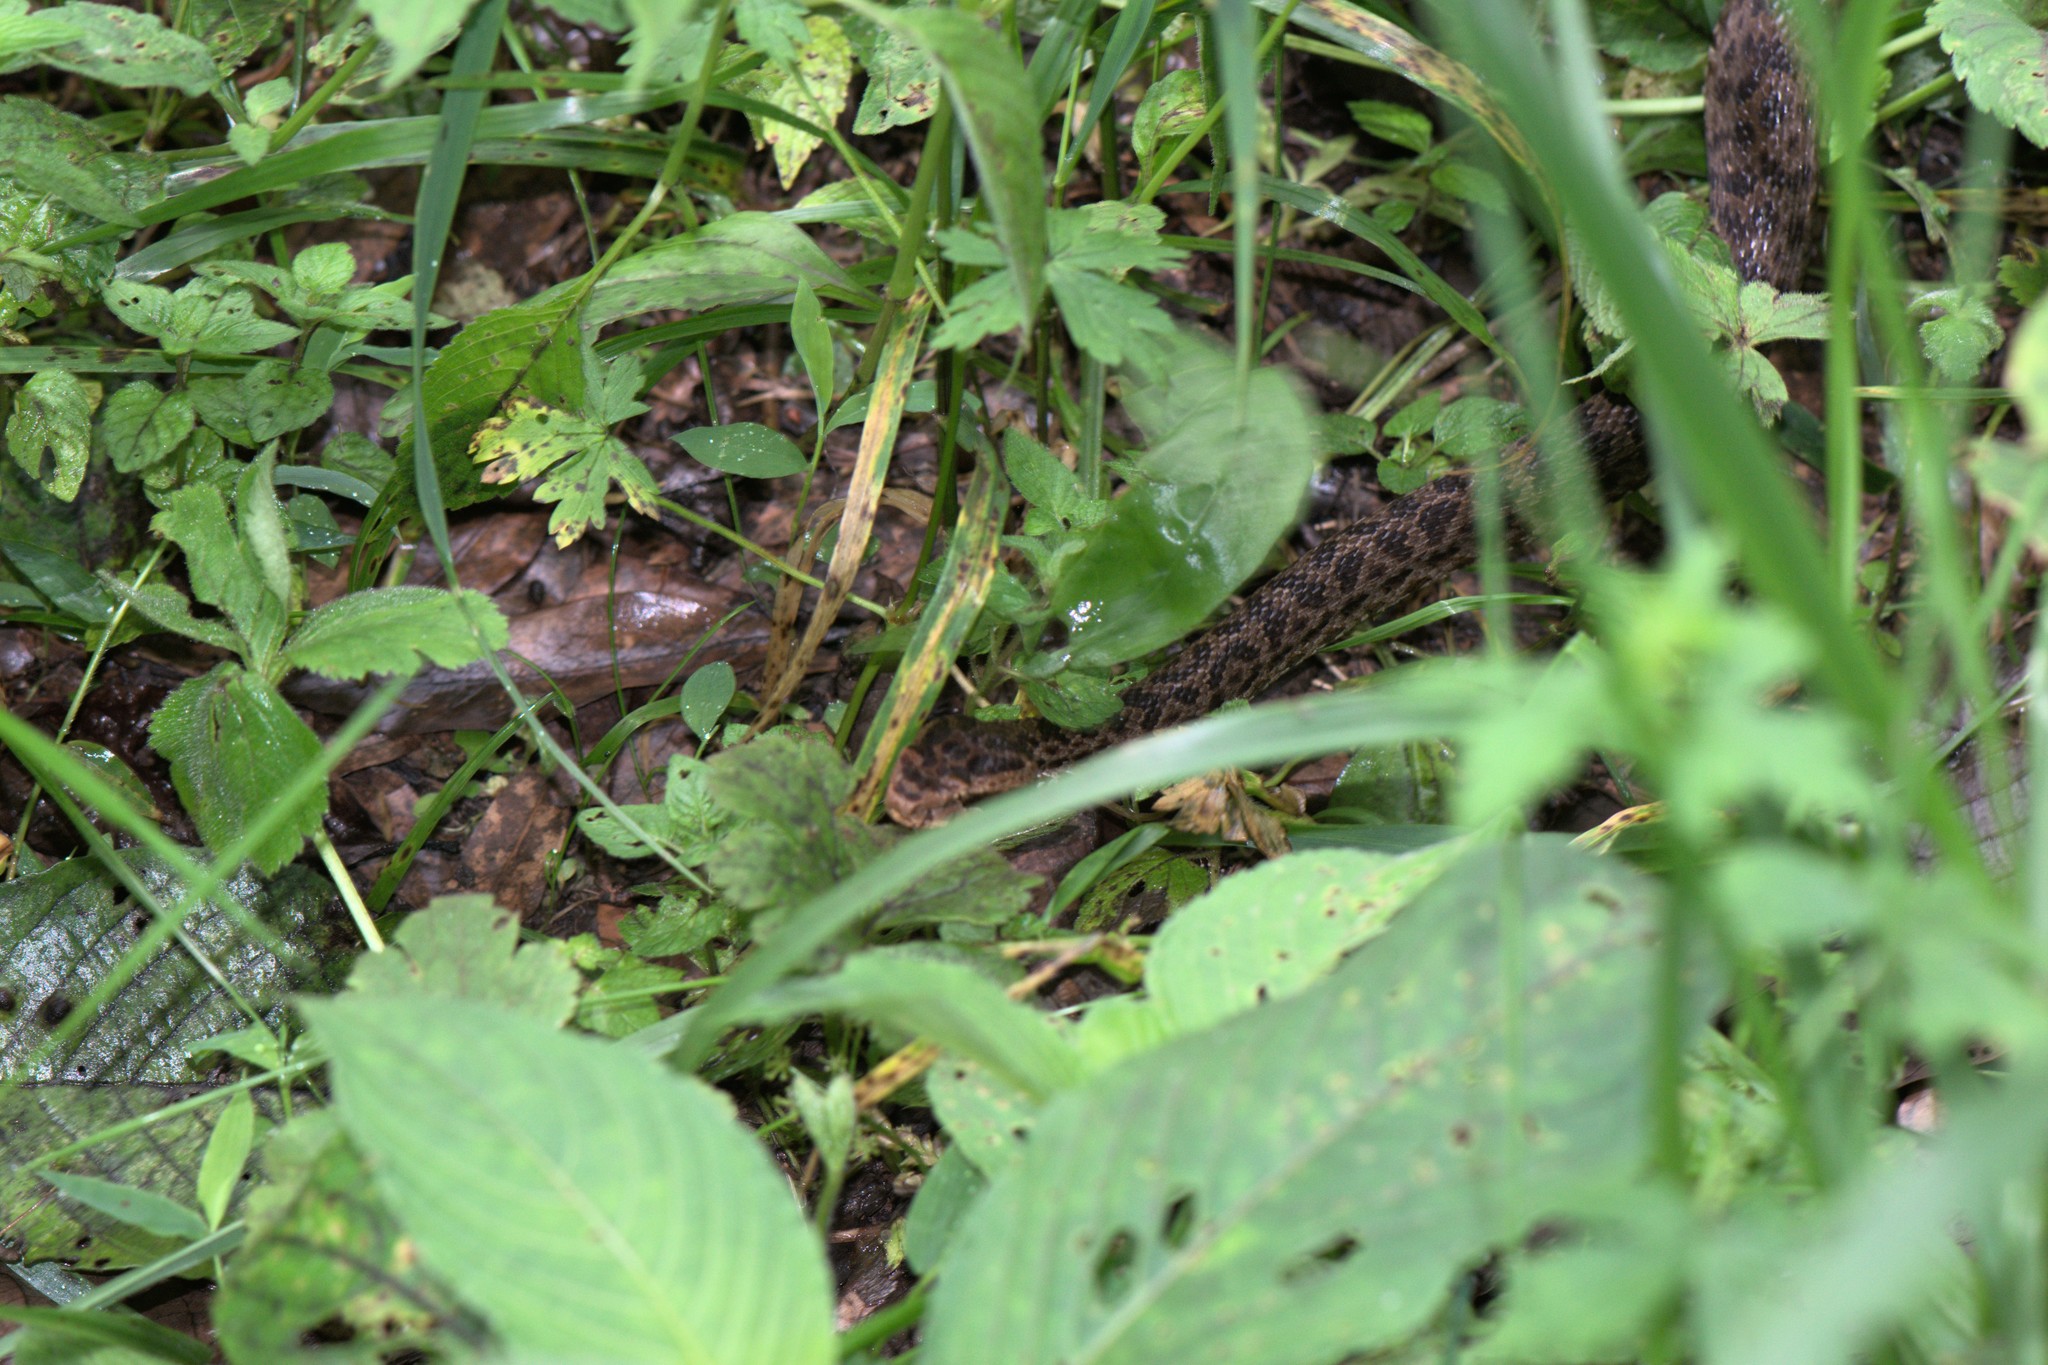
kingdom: Animalia
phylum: Chordata
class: Squamata
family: Viperidae
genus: Gloydius
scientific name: Gloydius himalayanus
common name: Himalayan pit-viper
